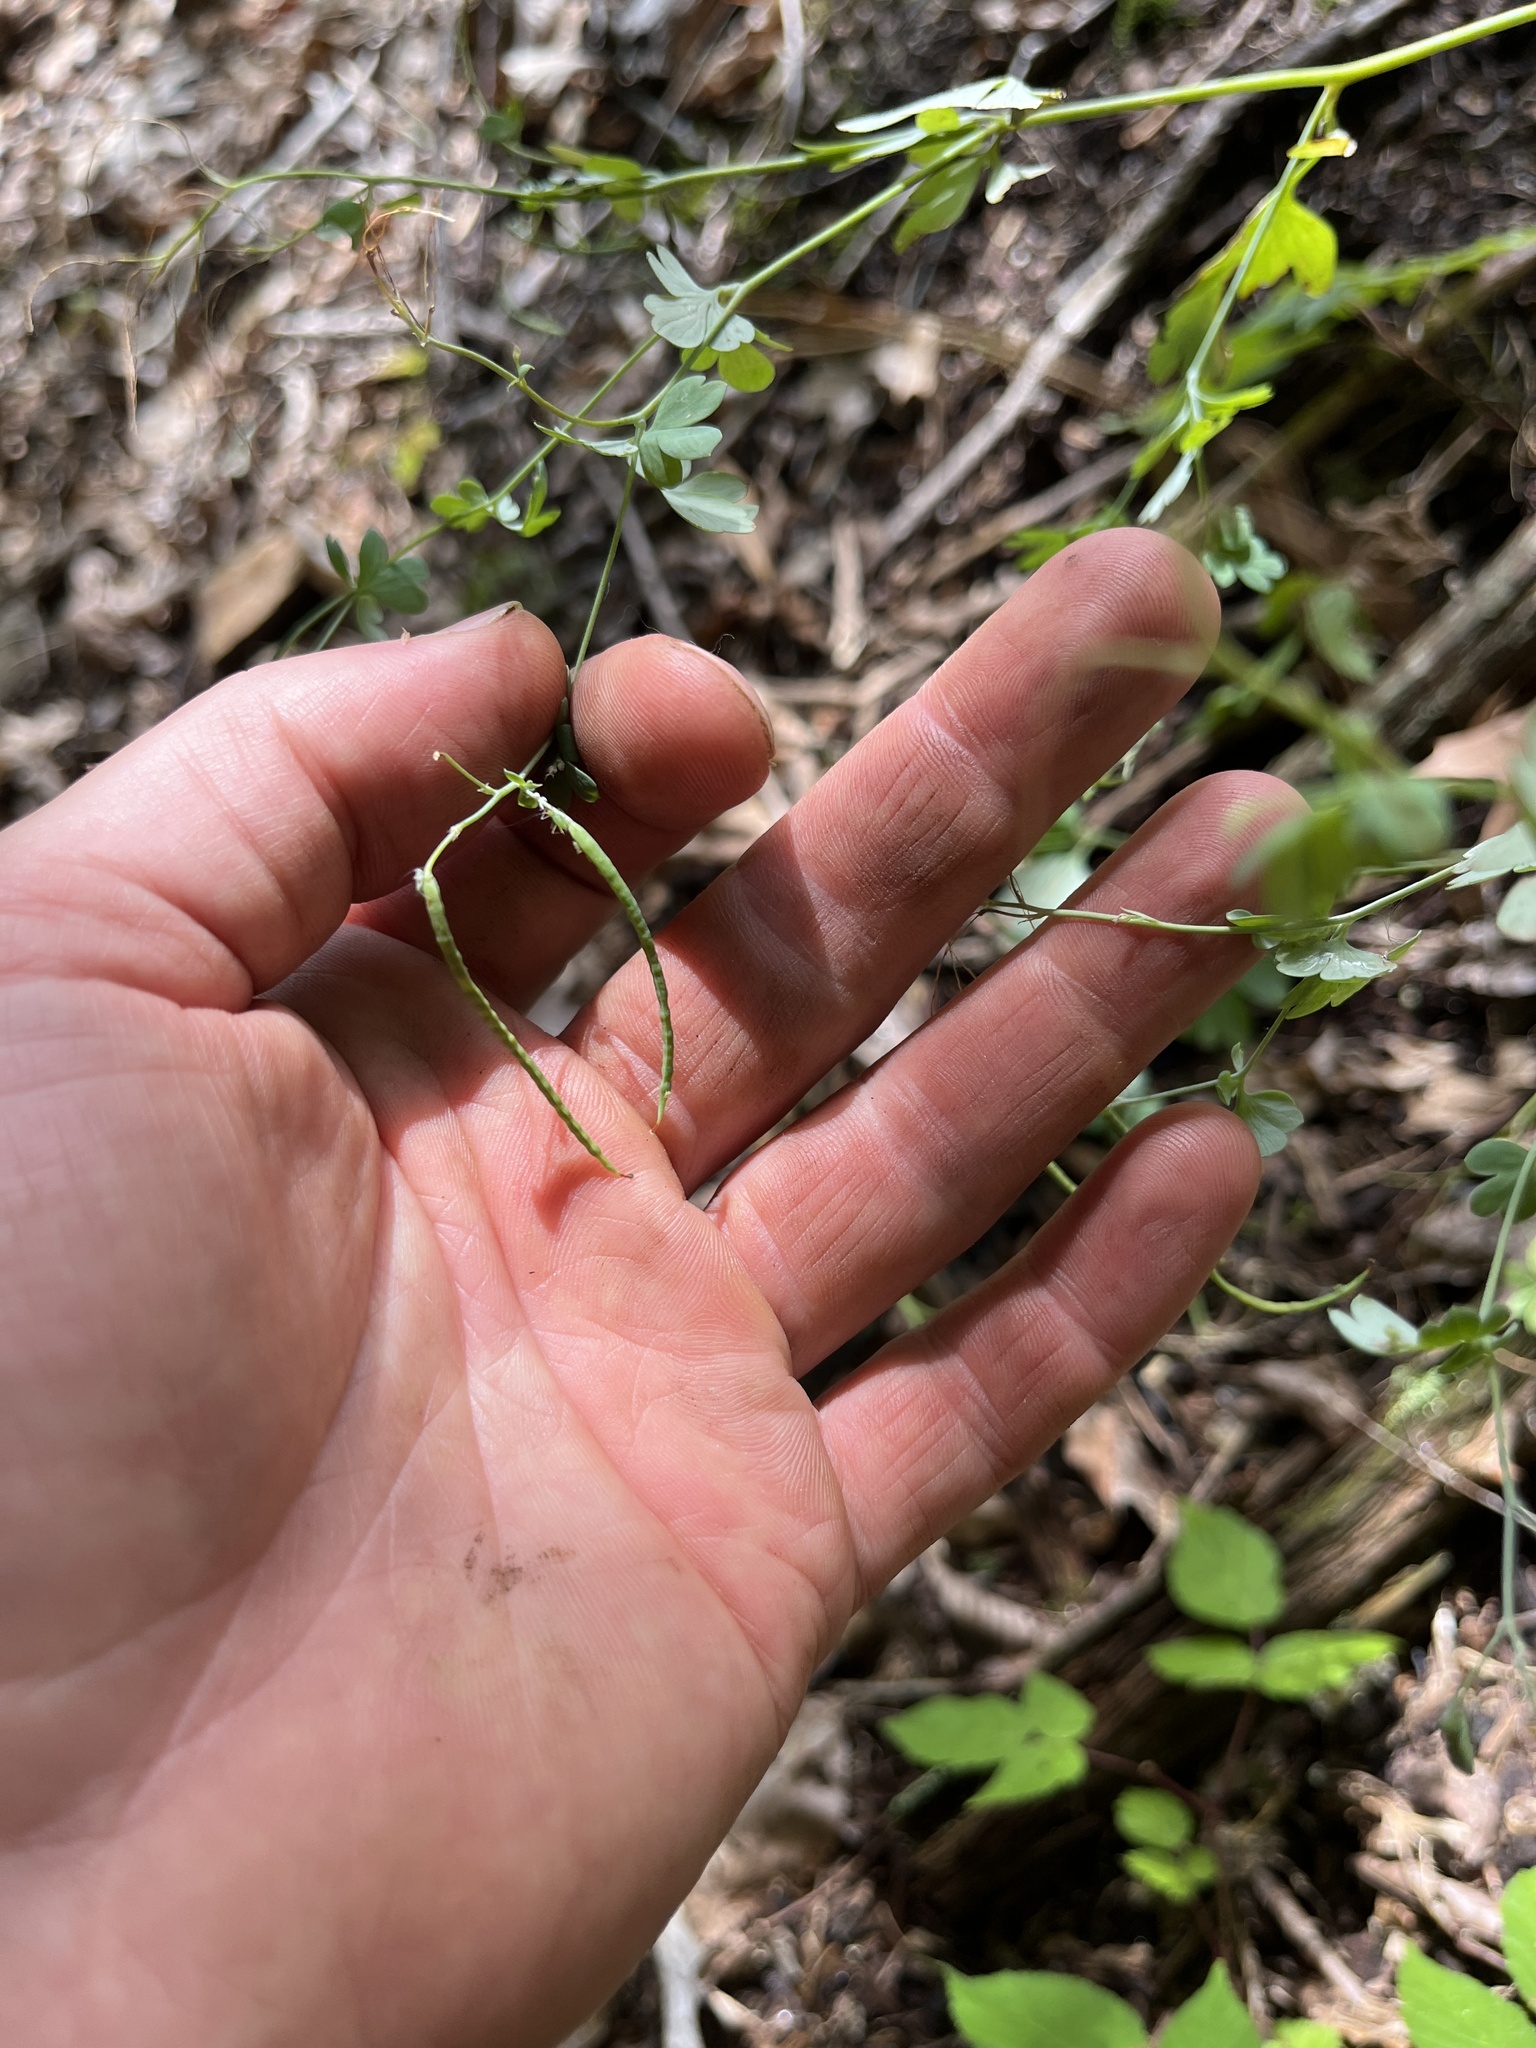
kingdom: Plantae
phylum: Tracheophyta
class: Magnoliopsida
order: Ranunculales
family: Papaveraceae
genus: Capnoides
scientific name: Capnoides sempervirens
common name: Rock harlequin
